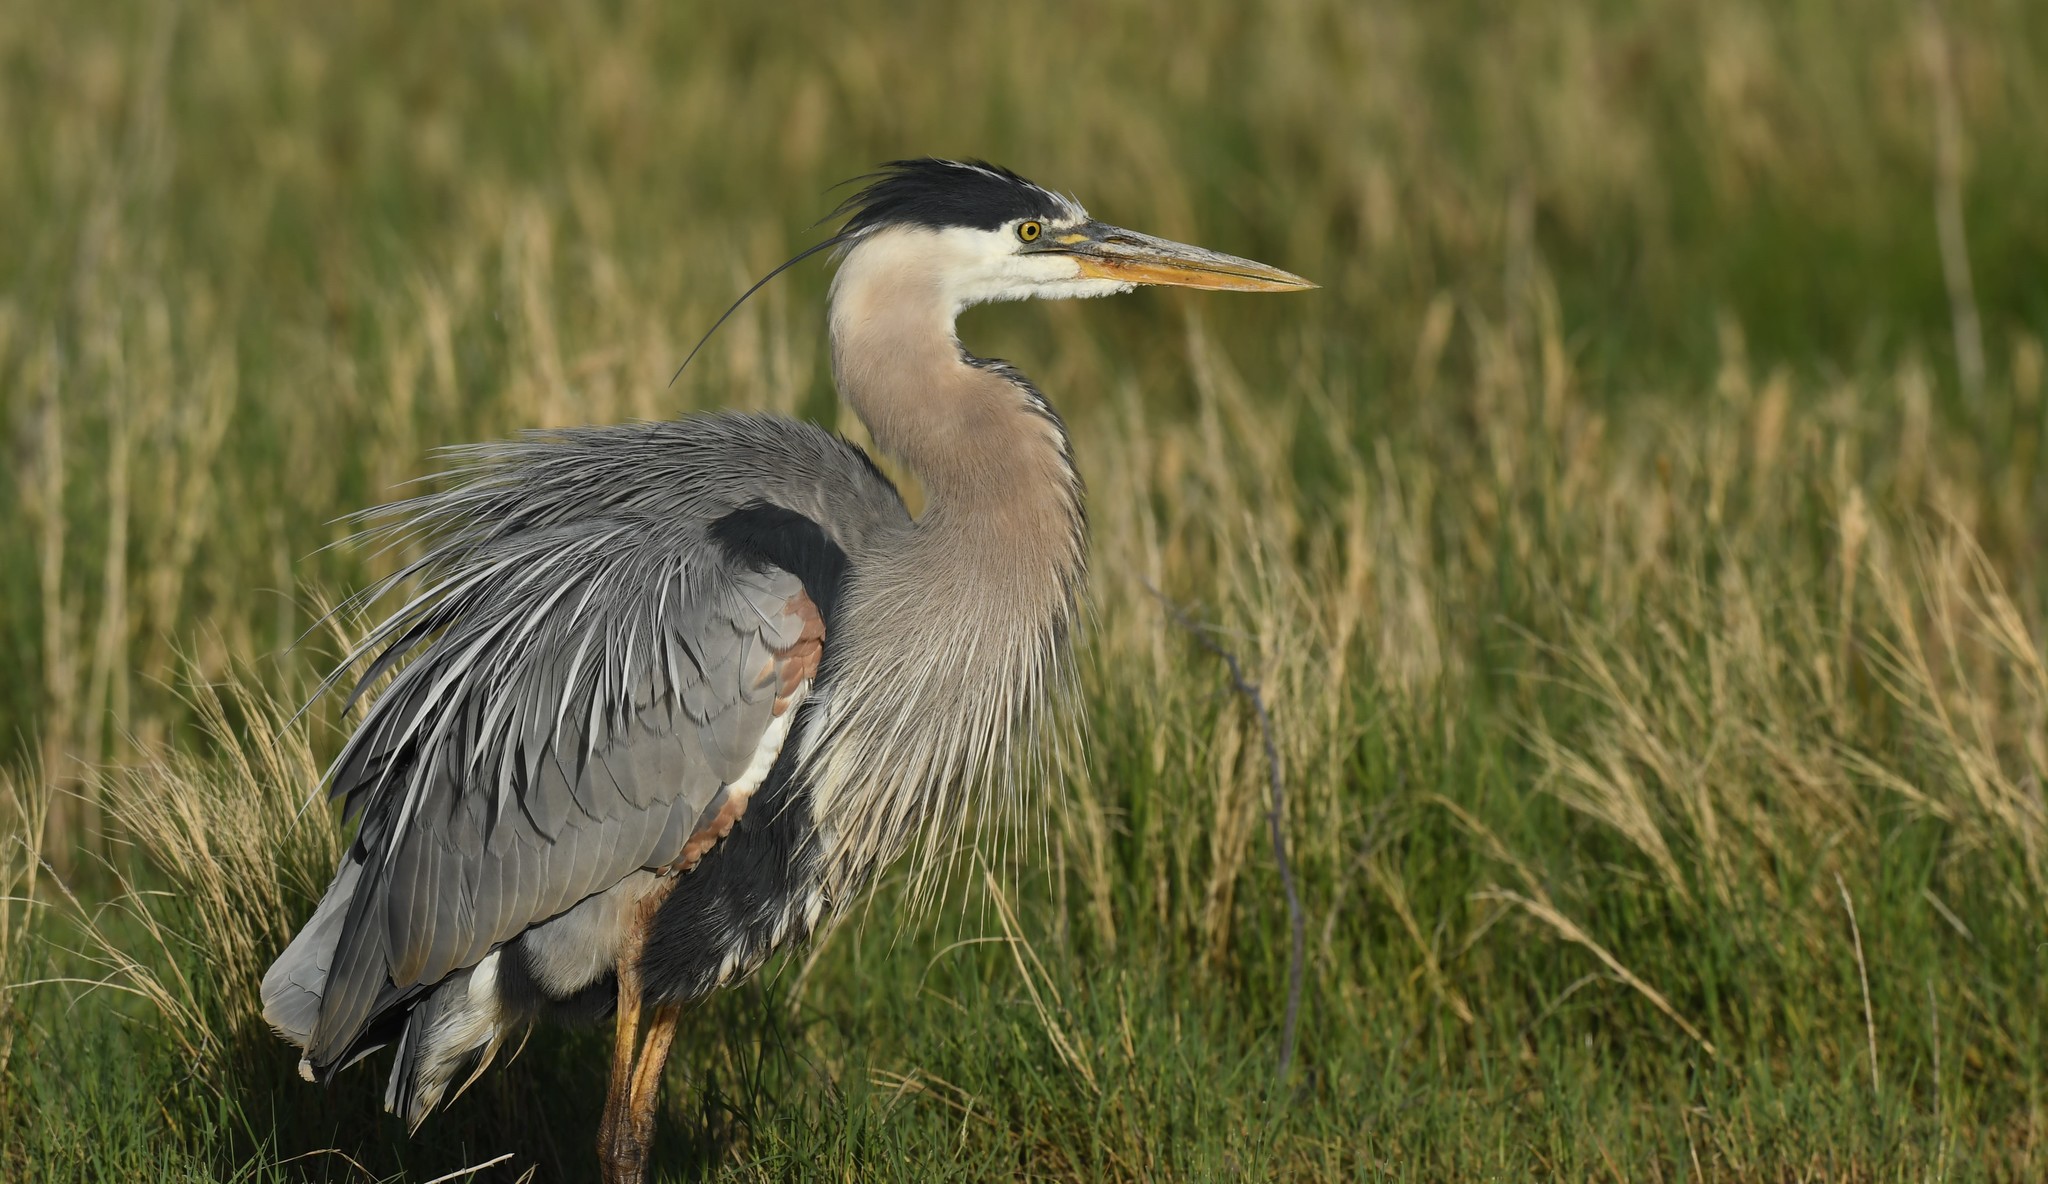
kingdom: Animalia
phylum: Chordata
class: Aves
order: Pelecaniformes
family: Ardeidae
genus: Ardea
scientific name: Ardea herodias
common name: Great blue heron
